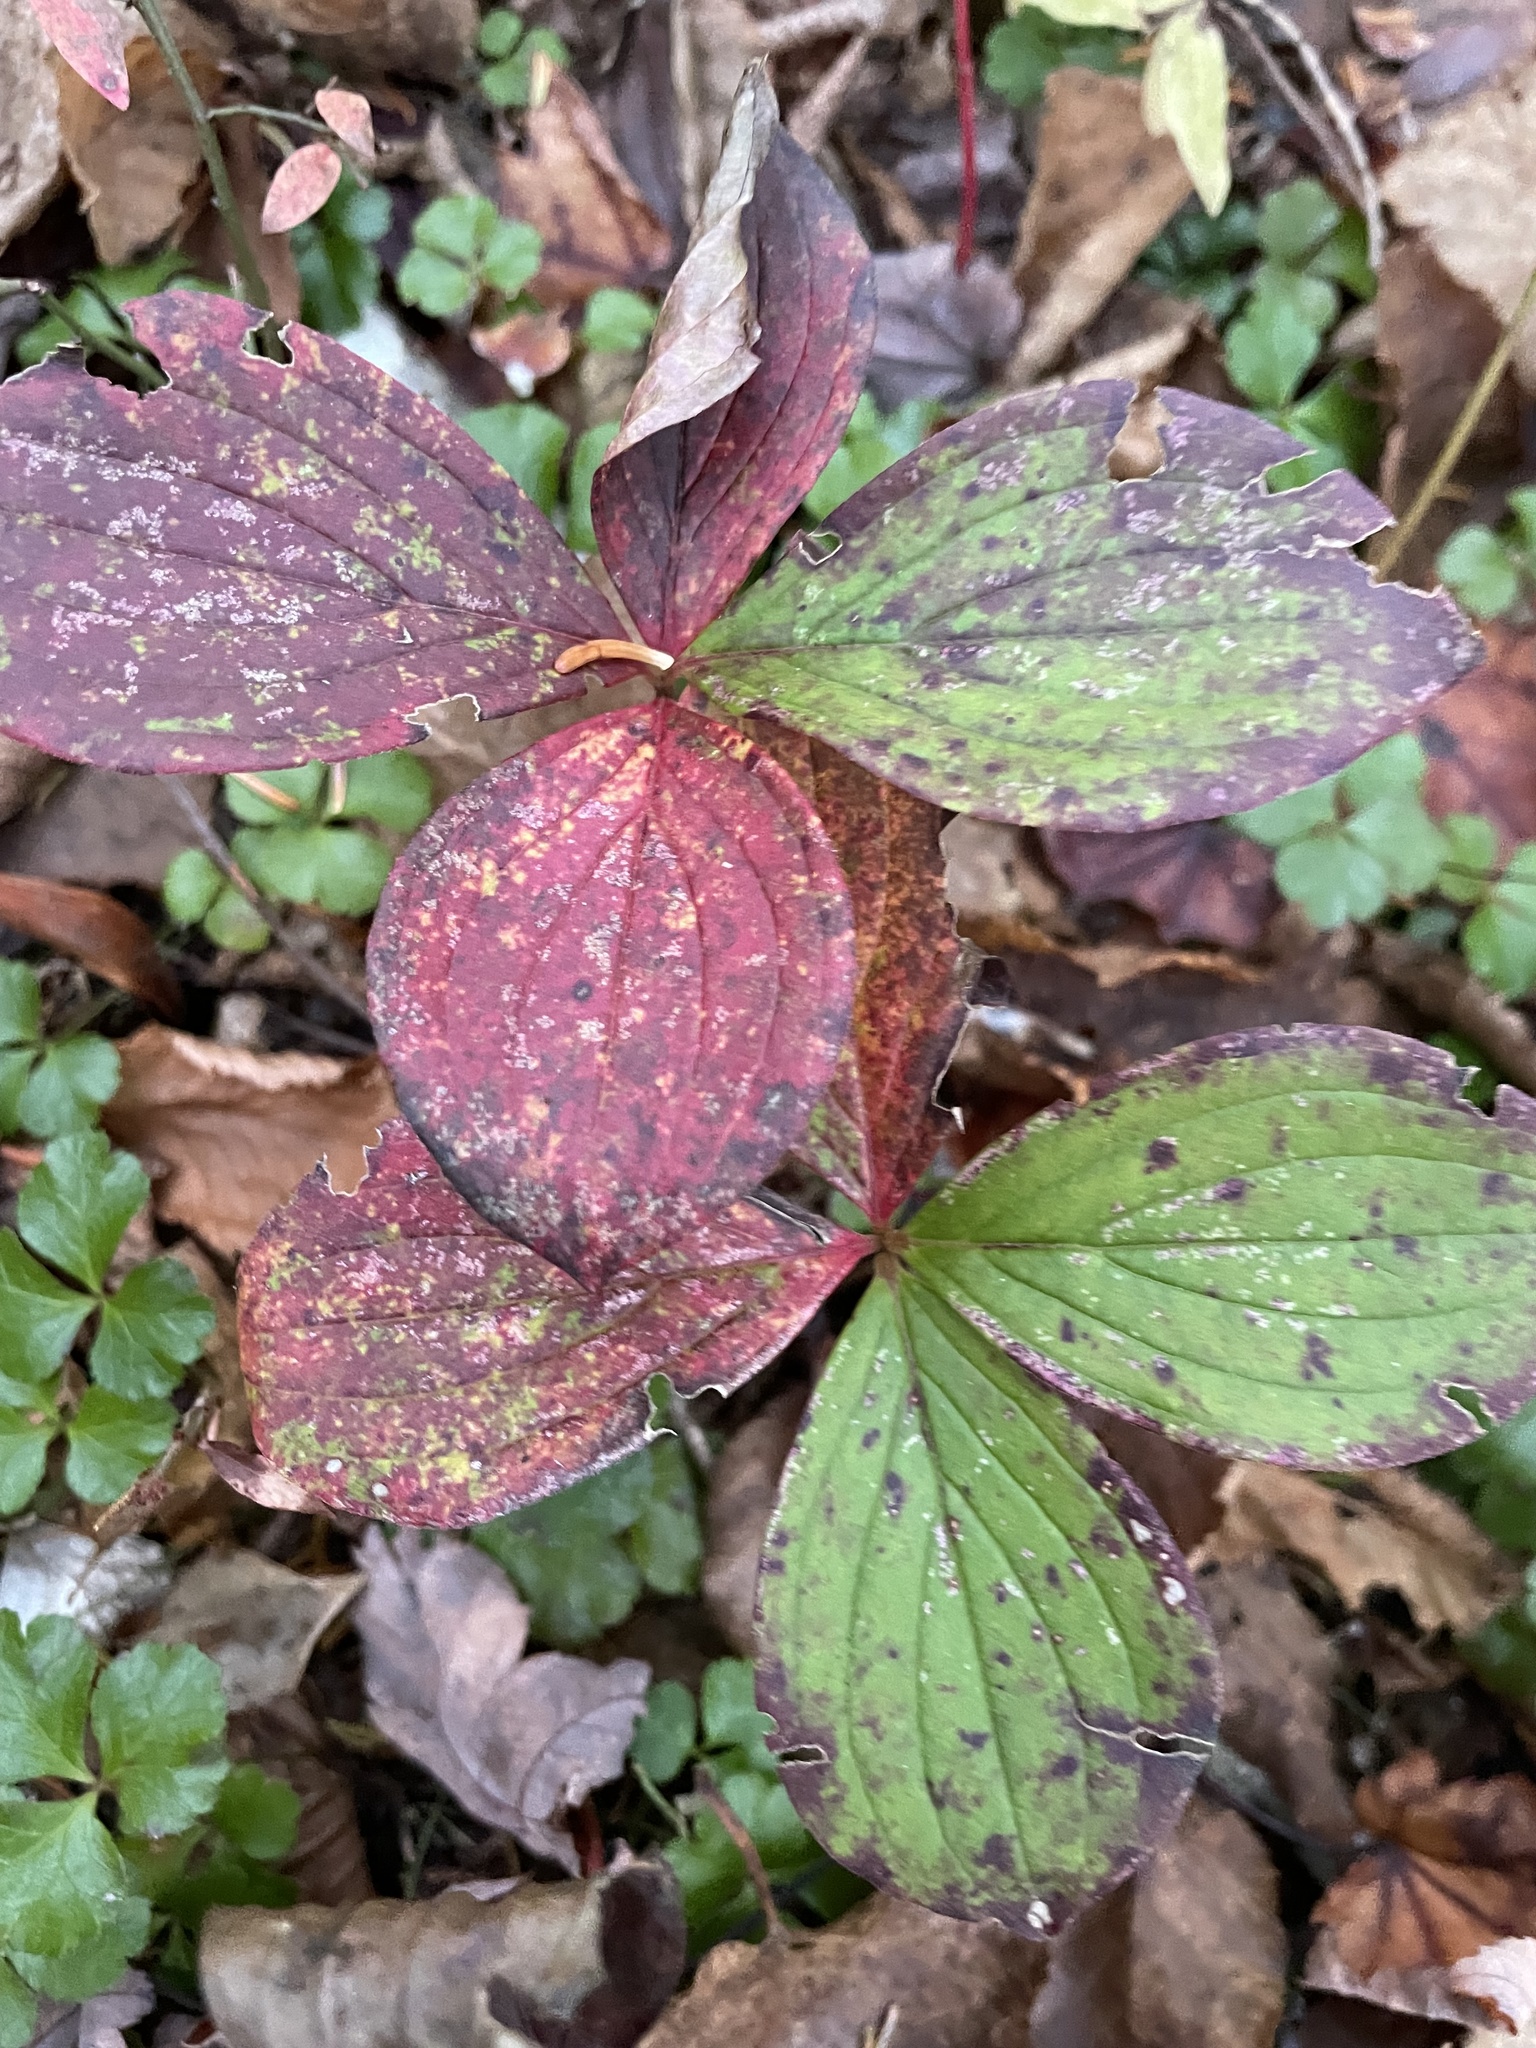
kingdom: Plantae
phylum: Tracheophyta
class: Magnoliopsida
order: Cornales
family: Cornaceae
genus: Cornus
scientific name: Cornus canadensis
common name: Creeping dogwood
